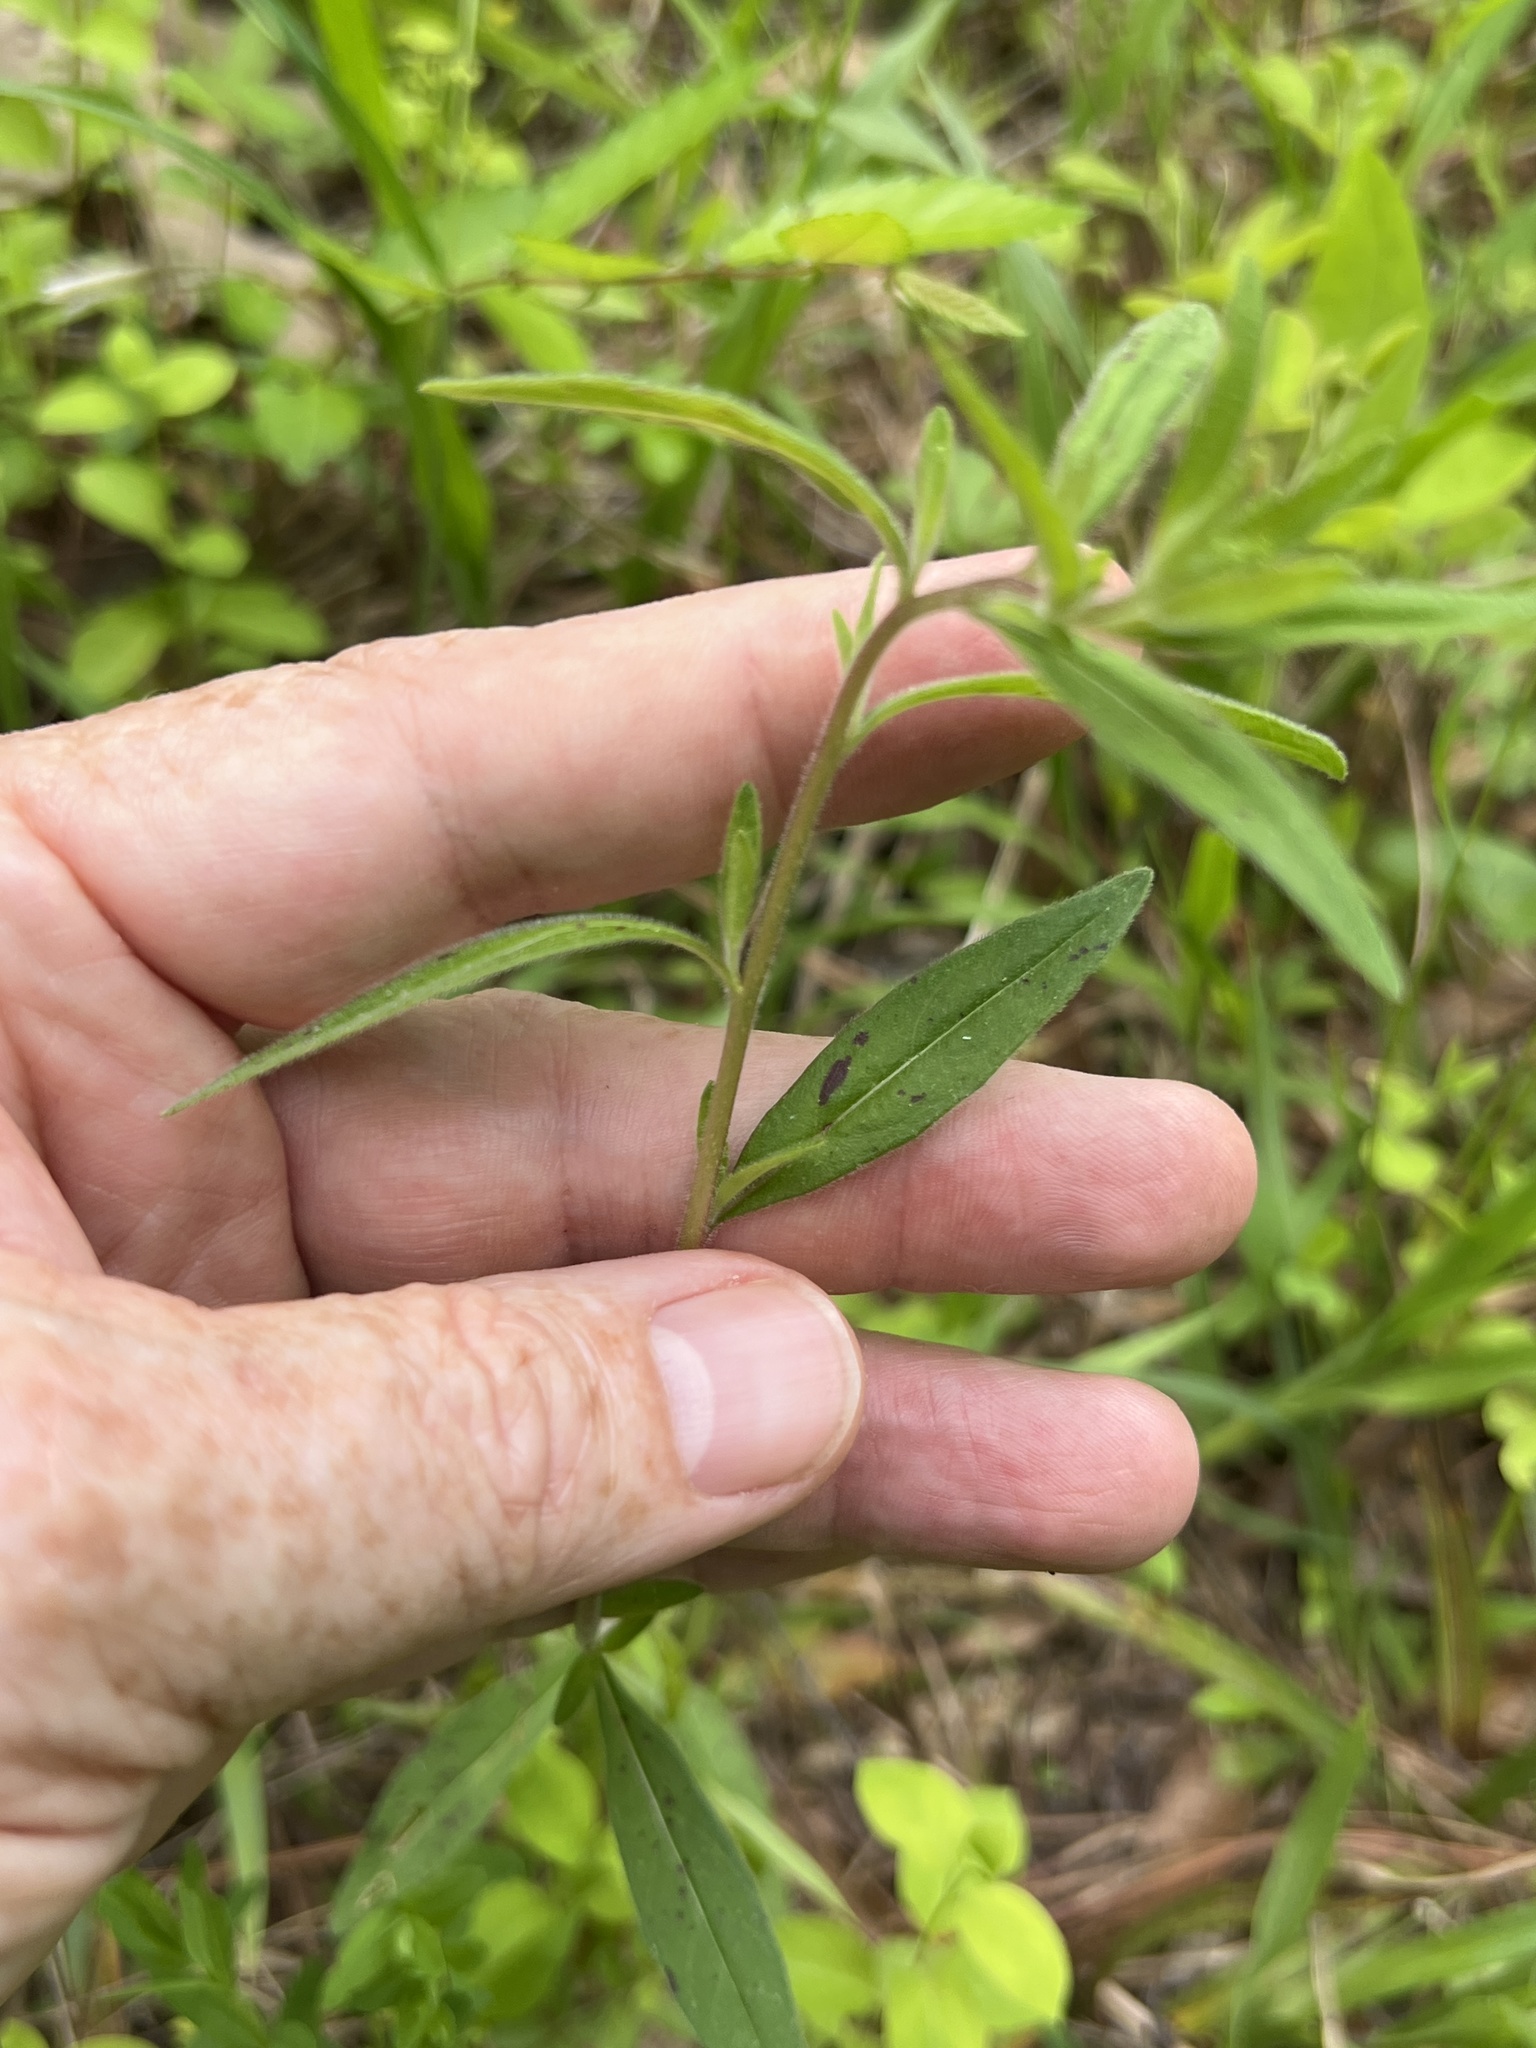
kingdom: Plantae
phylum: Tracheophyta
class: Magnoliopsida
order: Myrtales
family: Onagraceae
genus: Oenothera
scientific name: Oenothera fruticosa
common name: Southern sundrops
